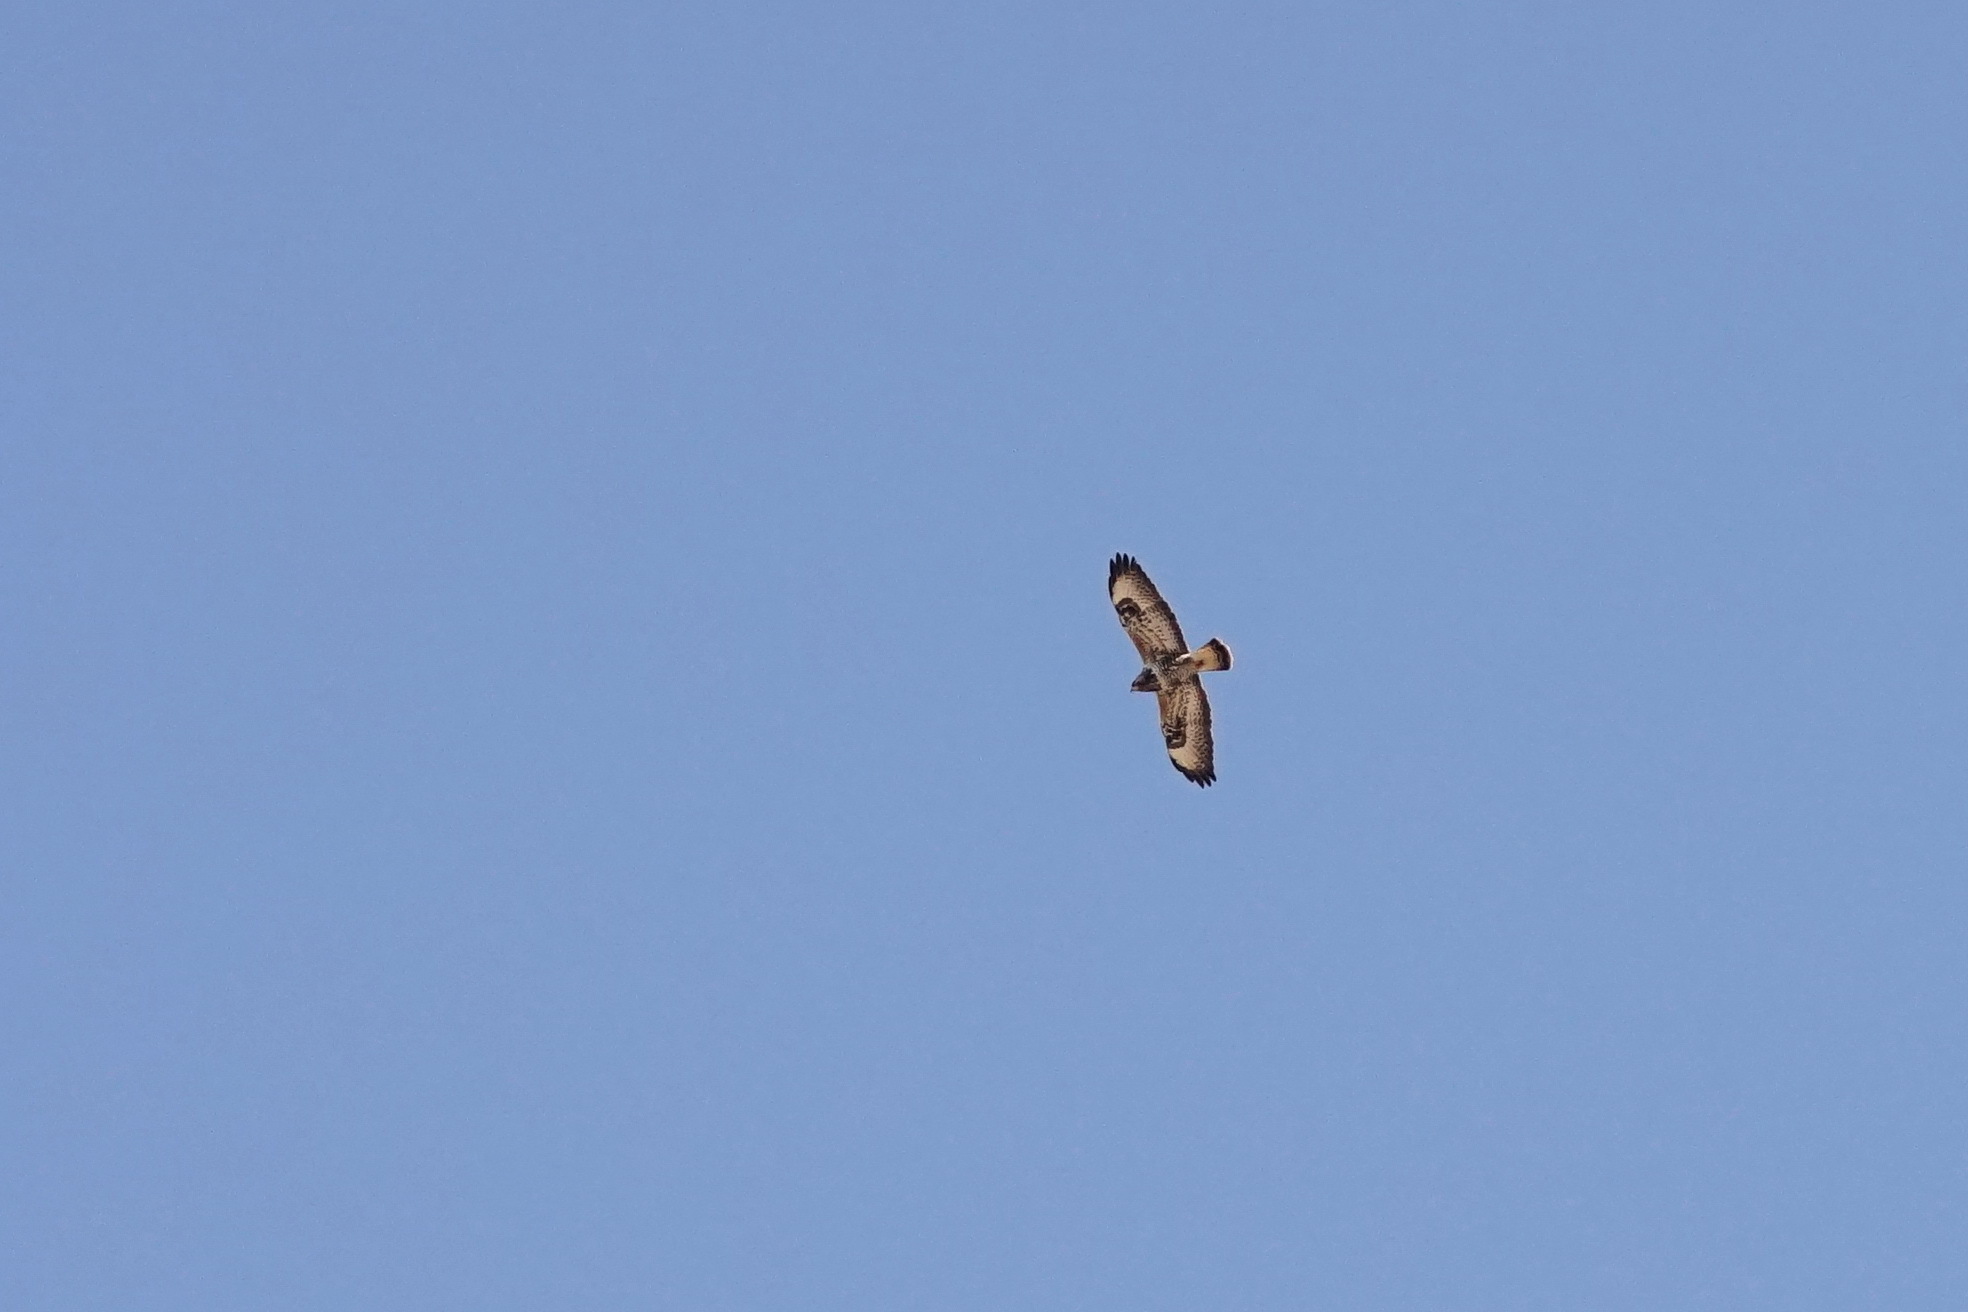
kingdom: Animalia
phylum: Chordata
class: Aves
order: Accipitriformes
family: Accipitridae
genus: Buteo
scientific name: Buteo lagopus
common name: Rough-legged buzzard
